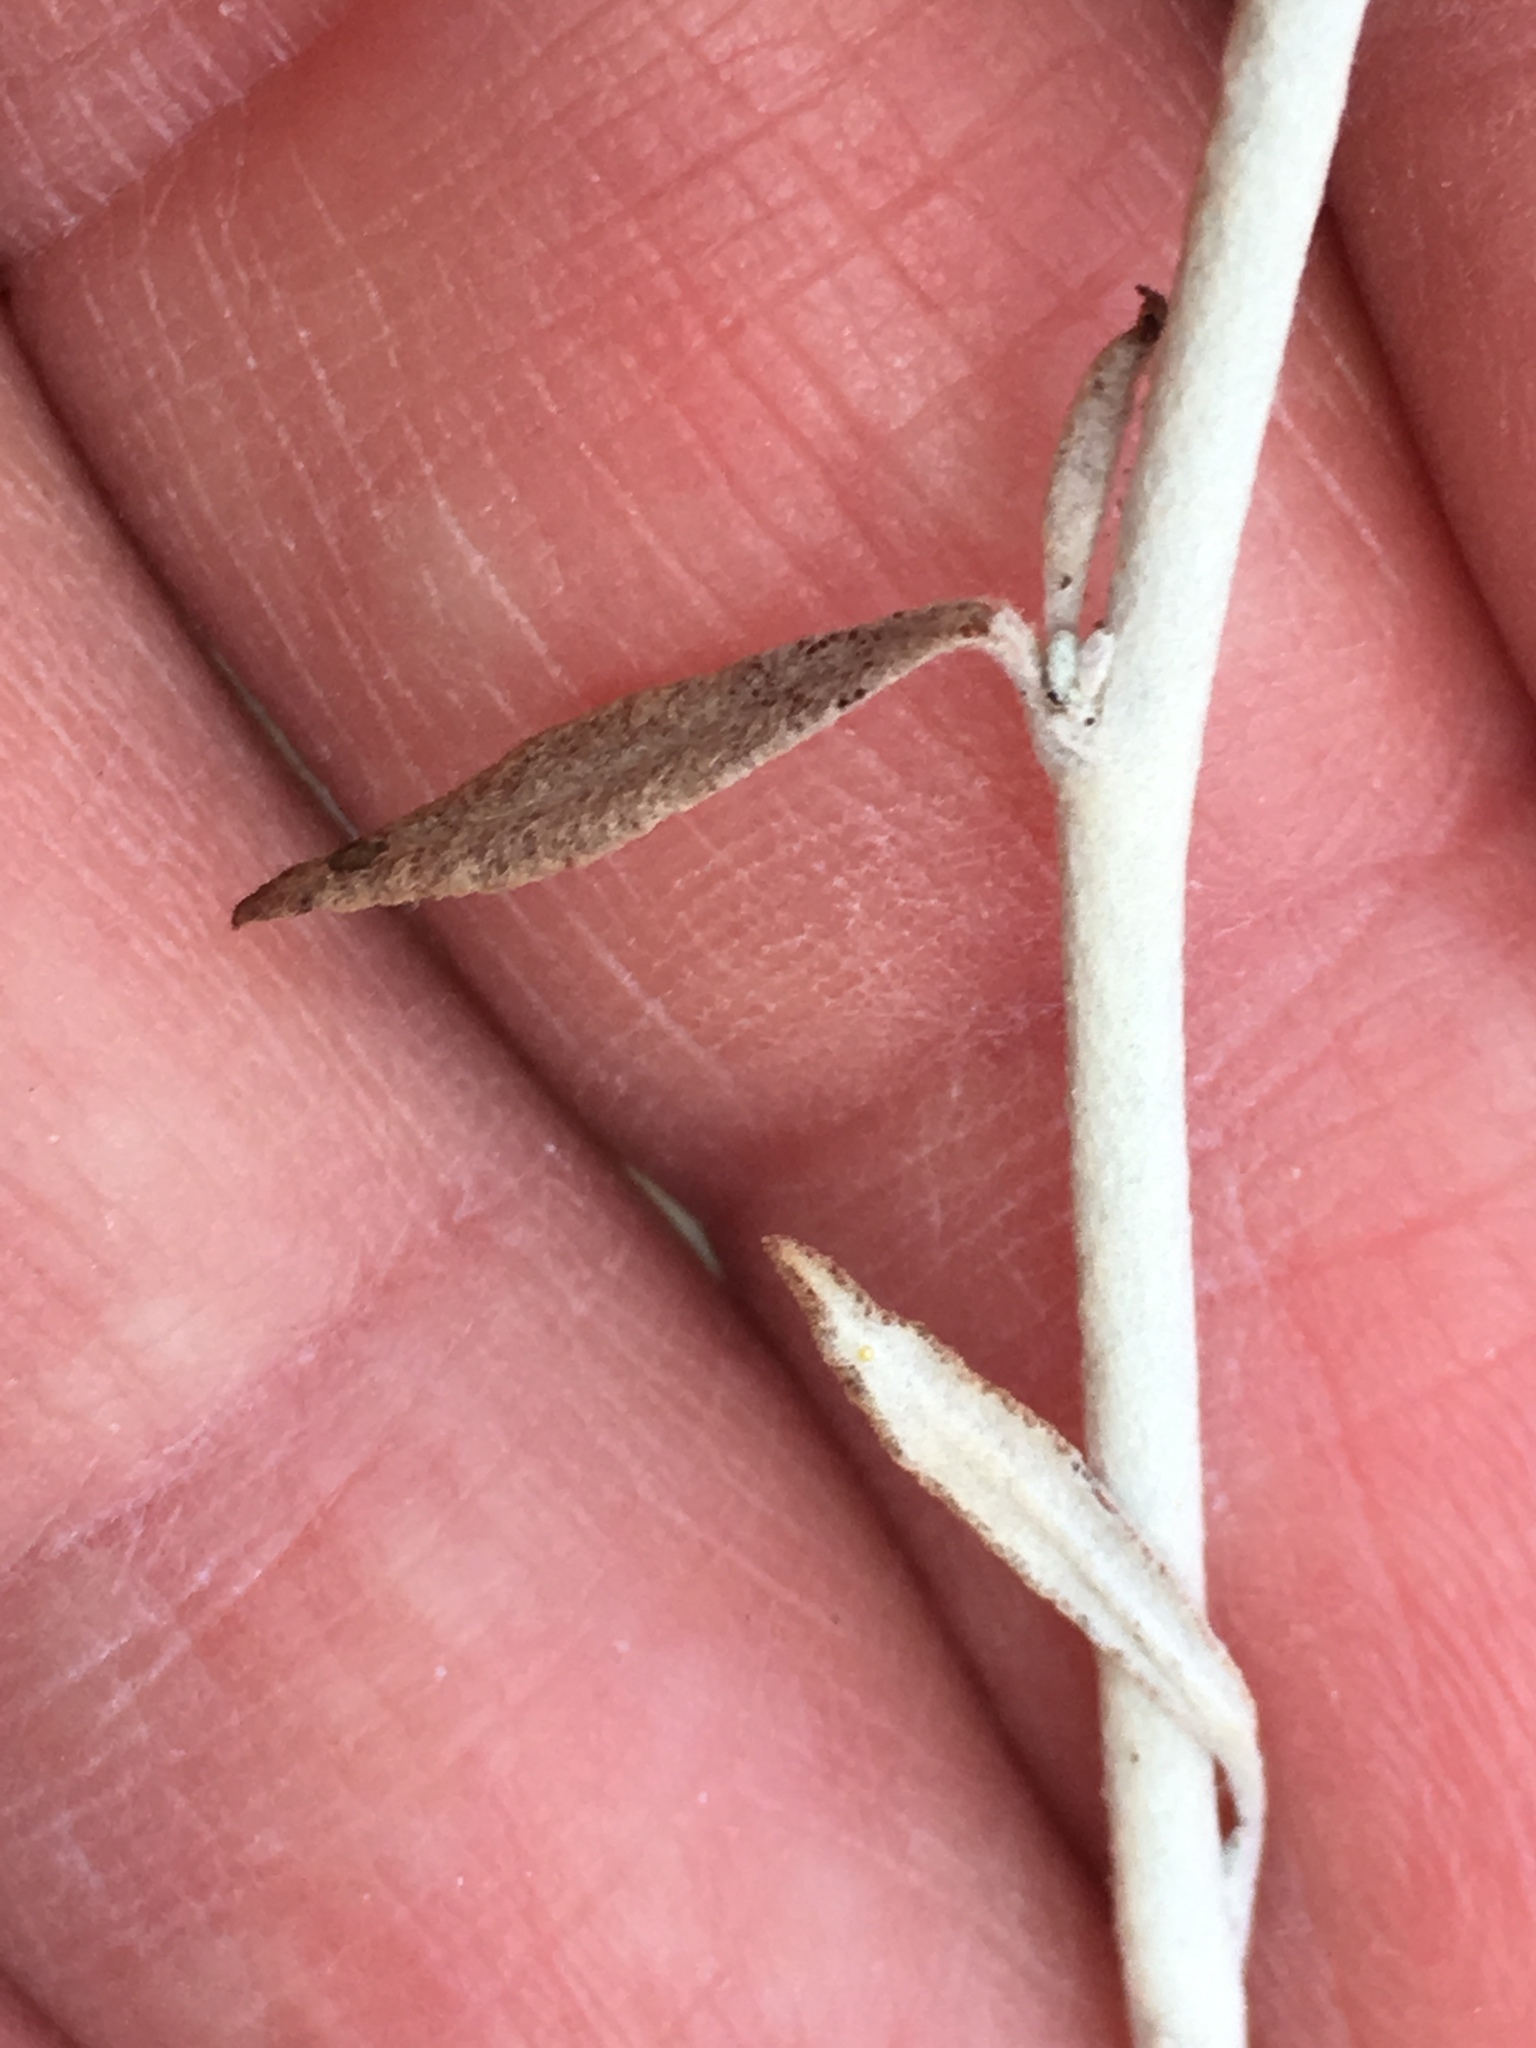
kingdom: Plantae
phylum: Tracheophyta
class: Magnoliopsida
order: Caryophyllales
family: Polygonaceae
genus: Eriogonum
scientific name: Eriogonum wrightii
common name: Bastard-sage
